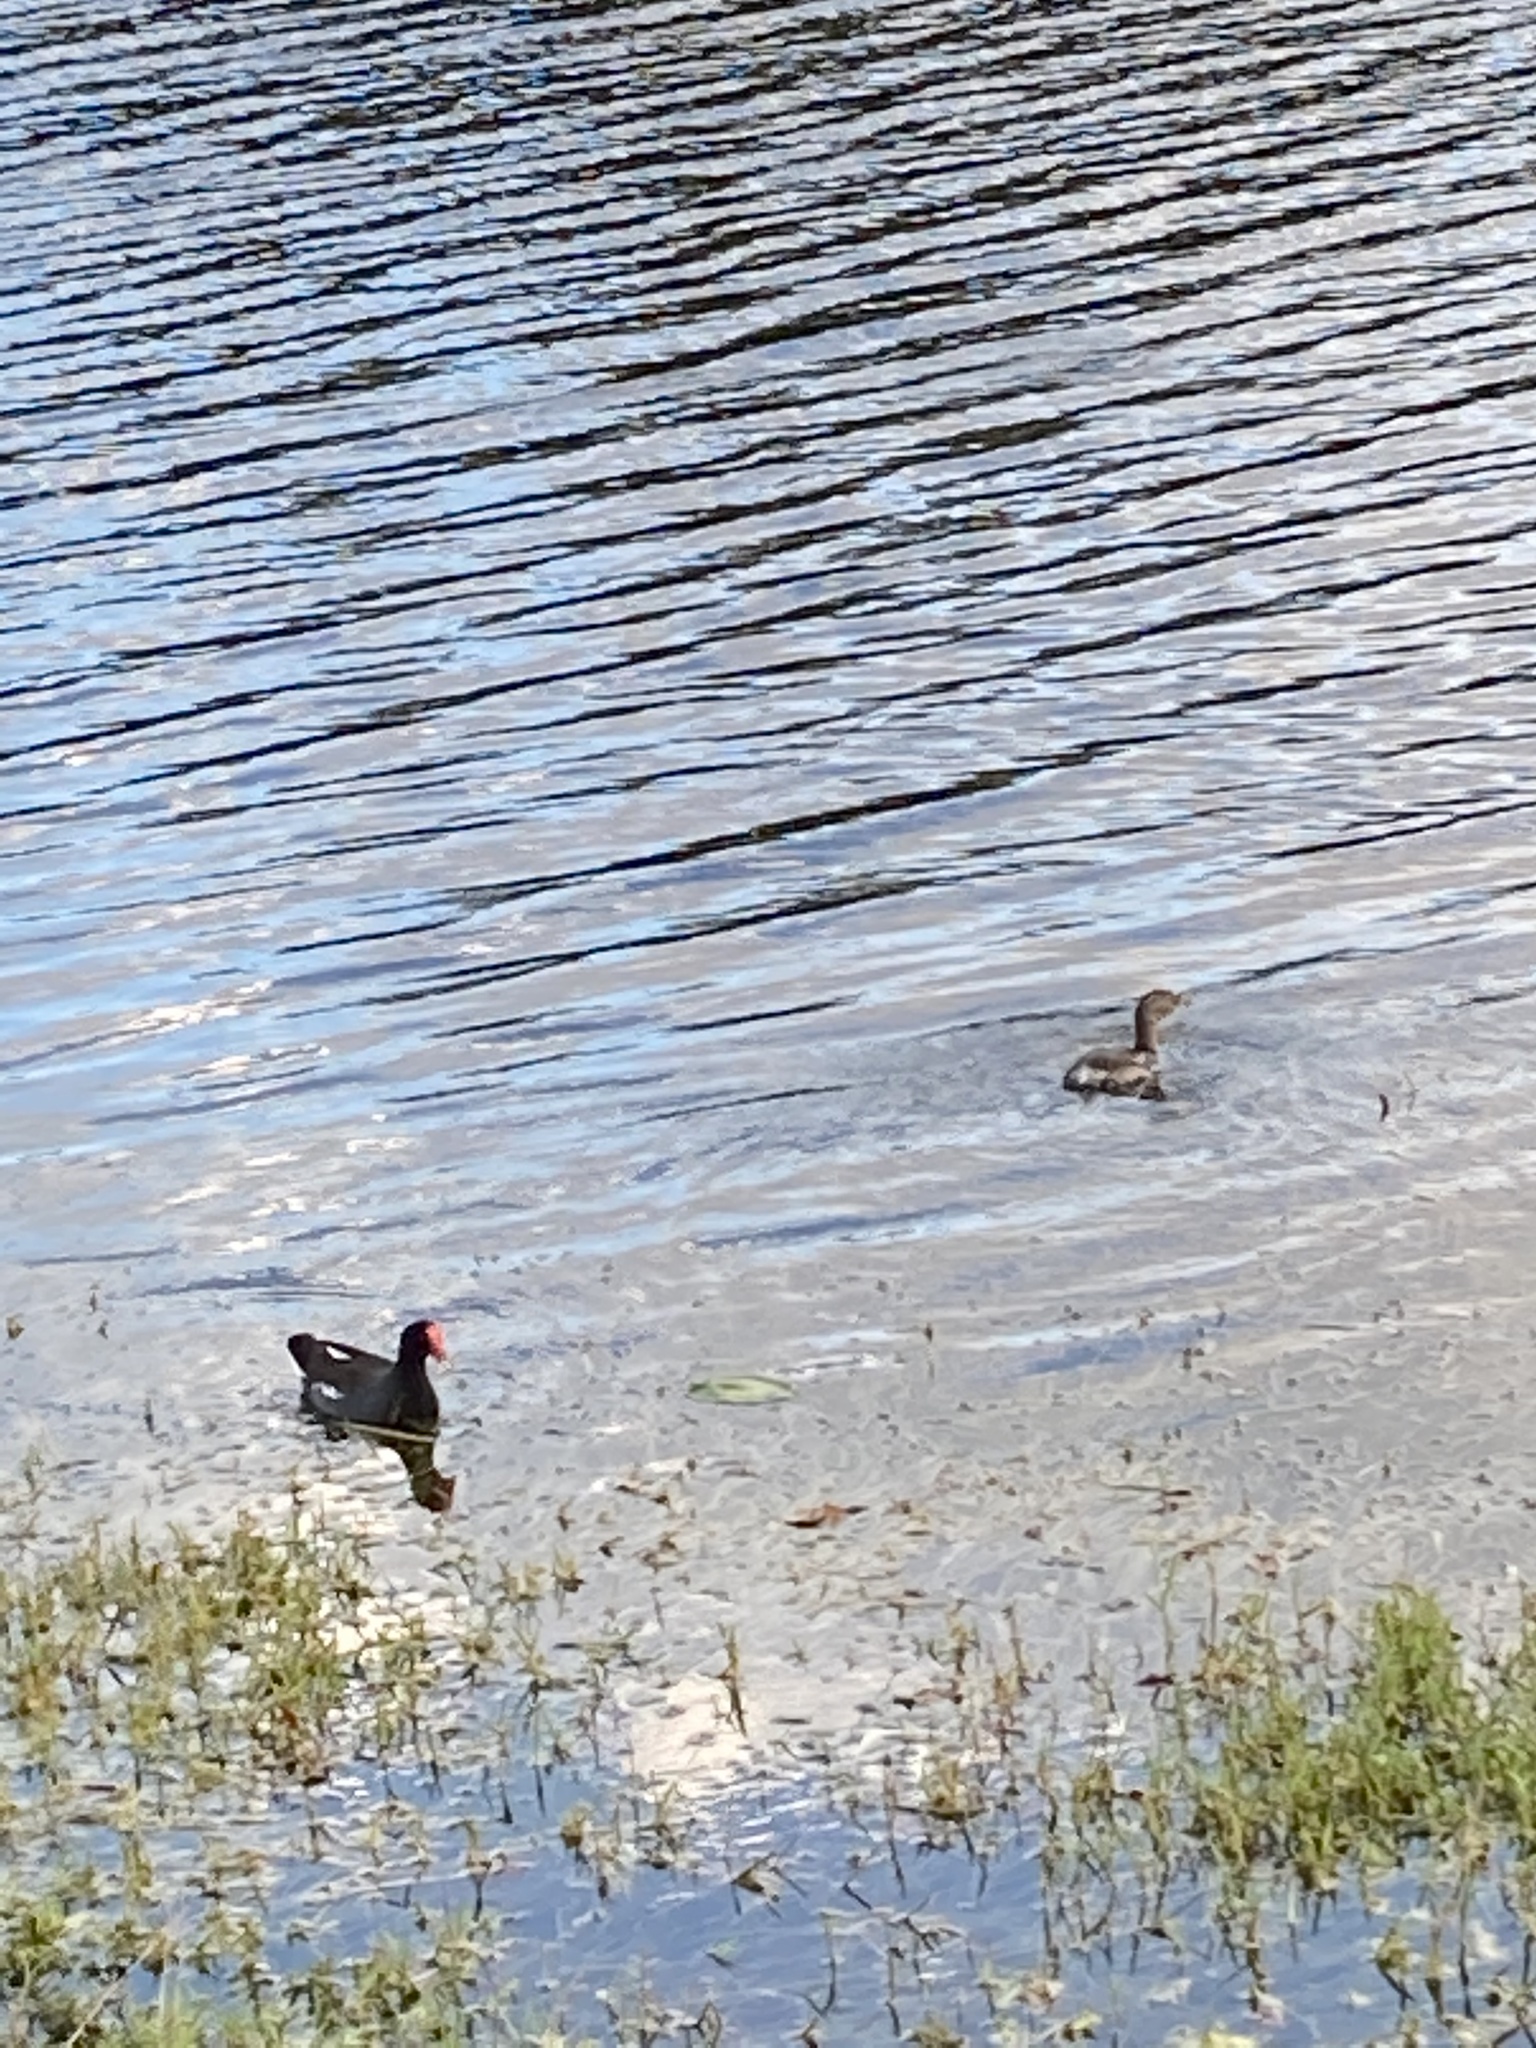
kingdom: Animalia
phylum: Chordata
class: Aves
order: Podicipediformes
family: Podicipedidae
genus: Podilymbus
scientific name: Podilymbus podiceps
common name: Pied-billed grebe
